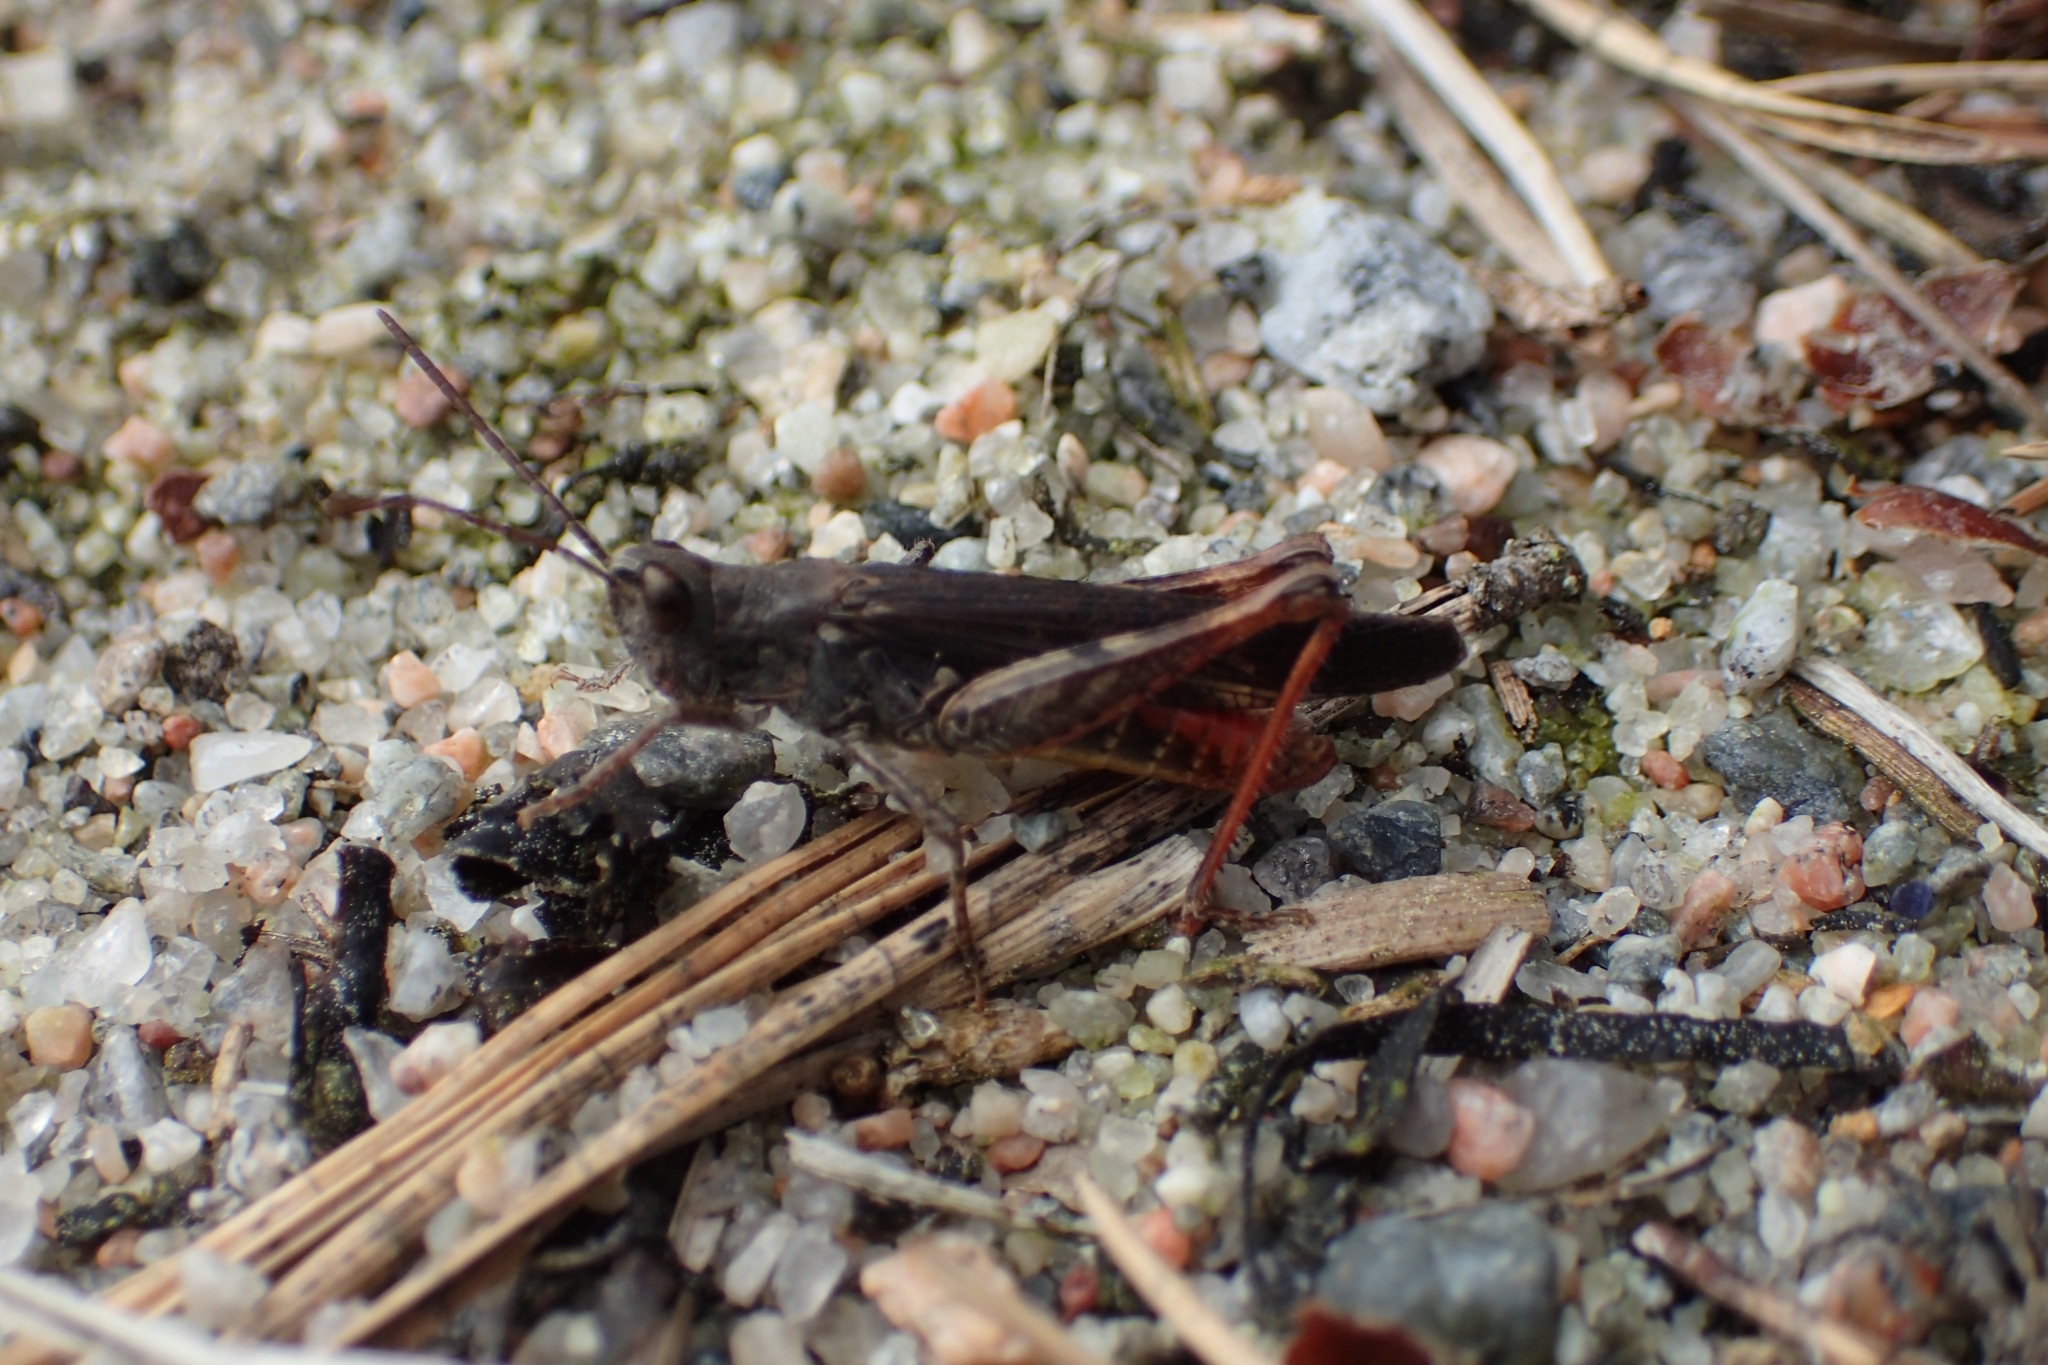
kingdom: Animalia
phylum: Arthropoda
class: Insecta
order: Orthoptera
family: Acrididae
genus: Chorthippus
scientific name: Chorthippus brunneus
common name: Field grasshopper
